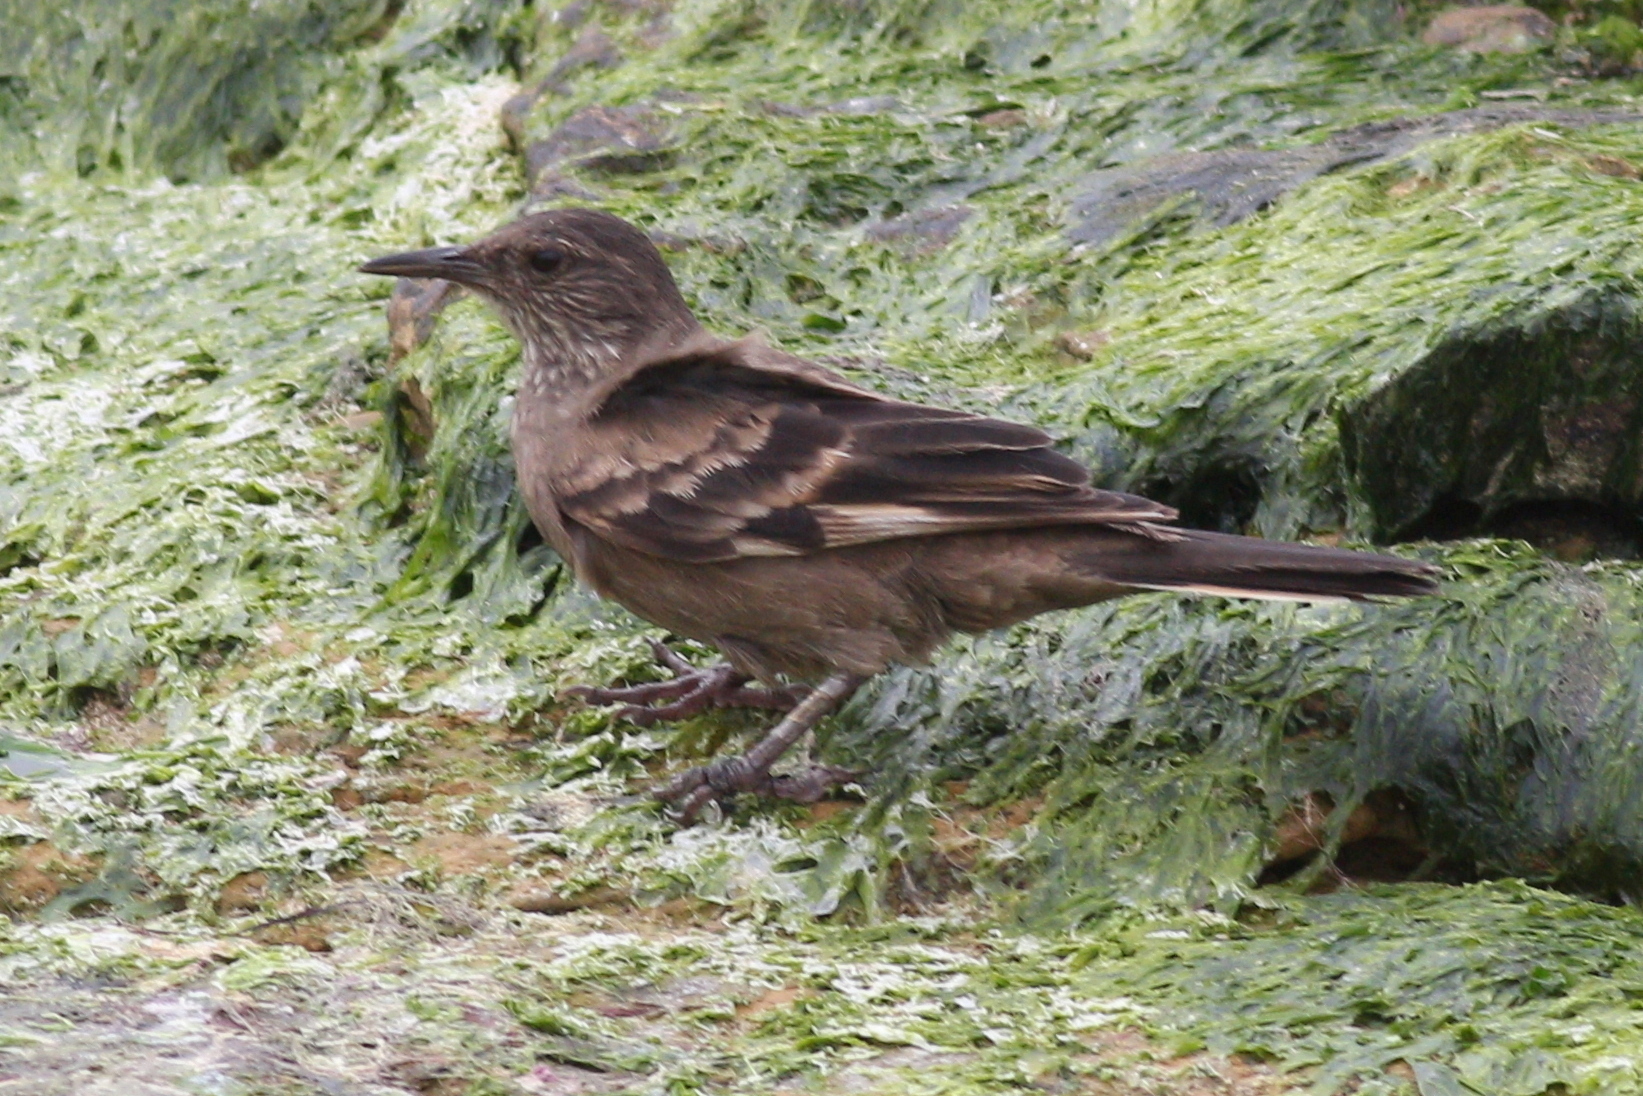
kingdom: Animalia
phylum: Chordata
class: Aves
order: Passeriformes
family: Furnariidae
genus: Cinclodes
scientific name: Cinclodes taczanowskii
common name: Peruvian seaside cinclodes
